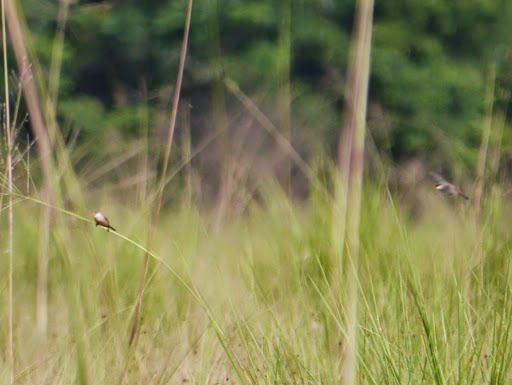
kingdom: Animalia
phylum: Chordata
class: Aves
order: Passeriformes
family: Estrildidae
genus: Estrilda
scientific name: Estrilda astrild
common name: Common waxbill
